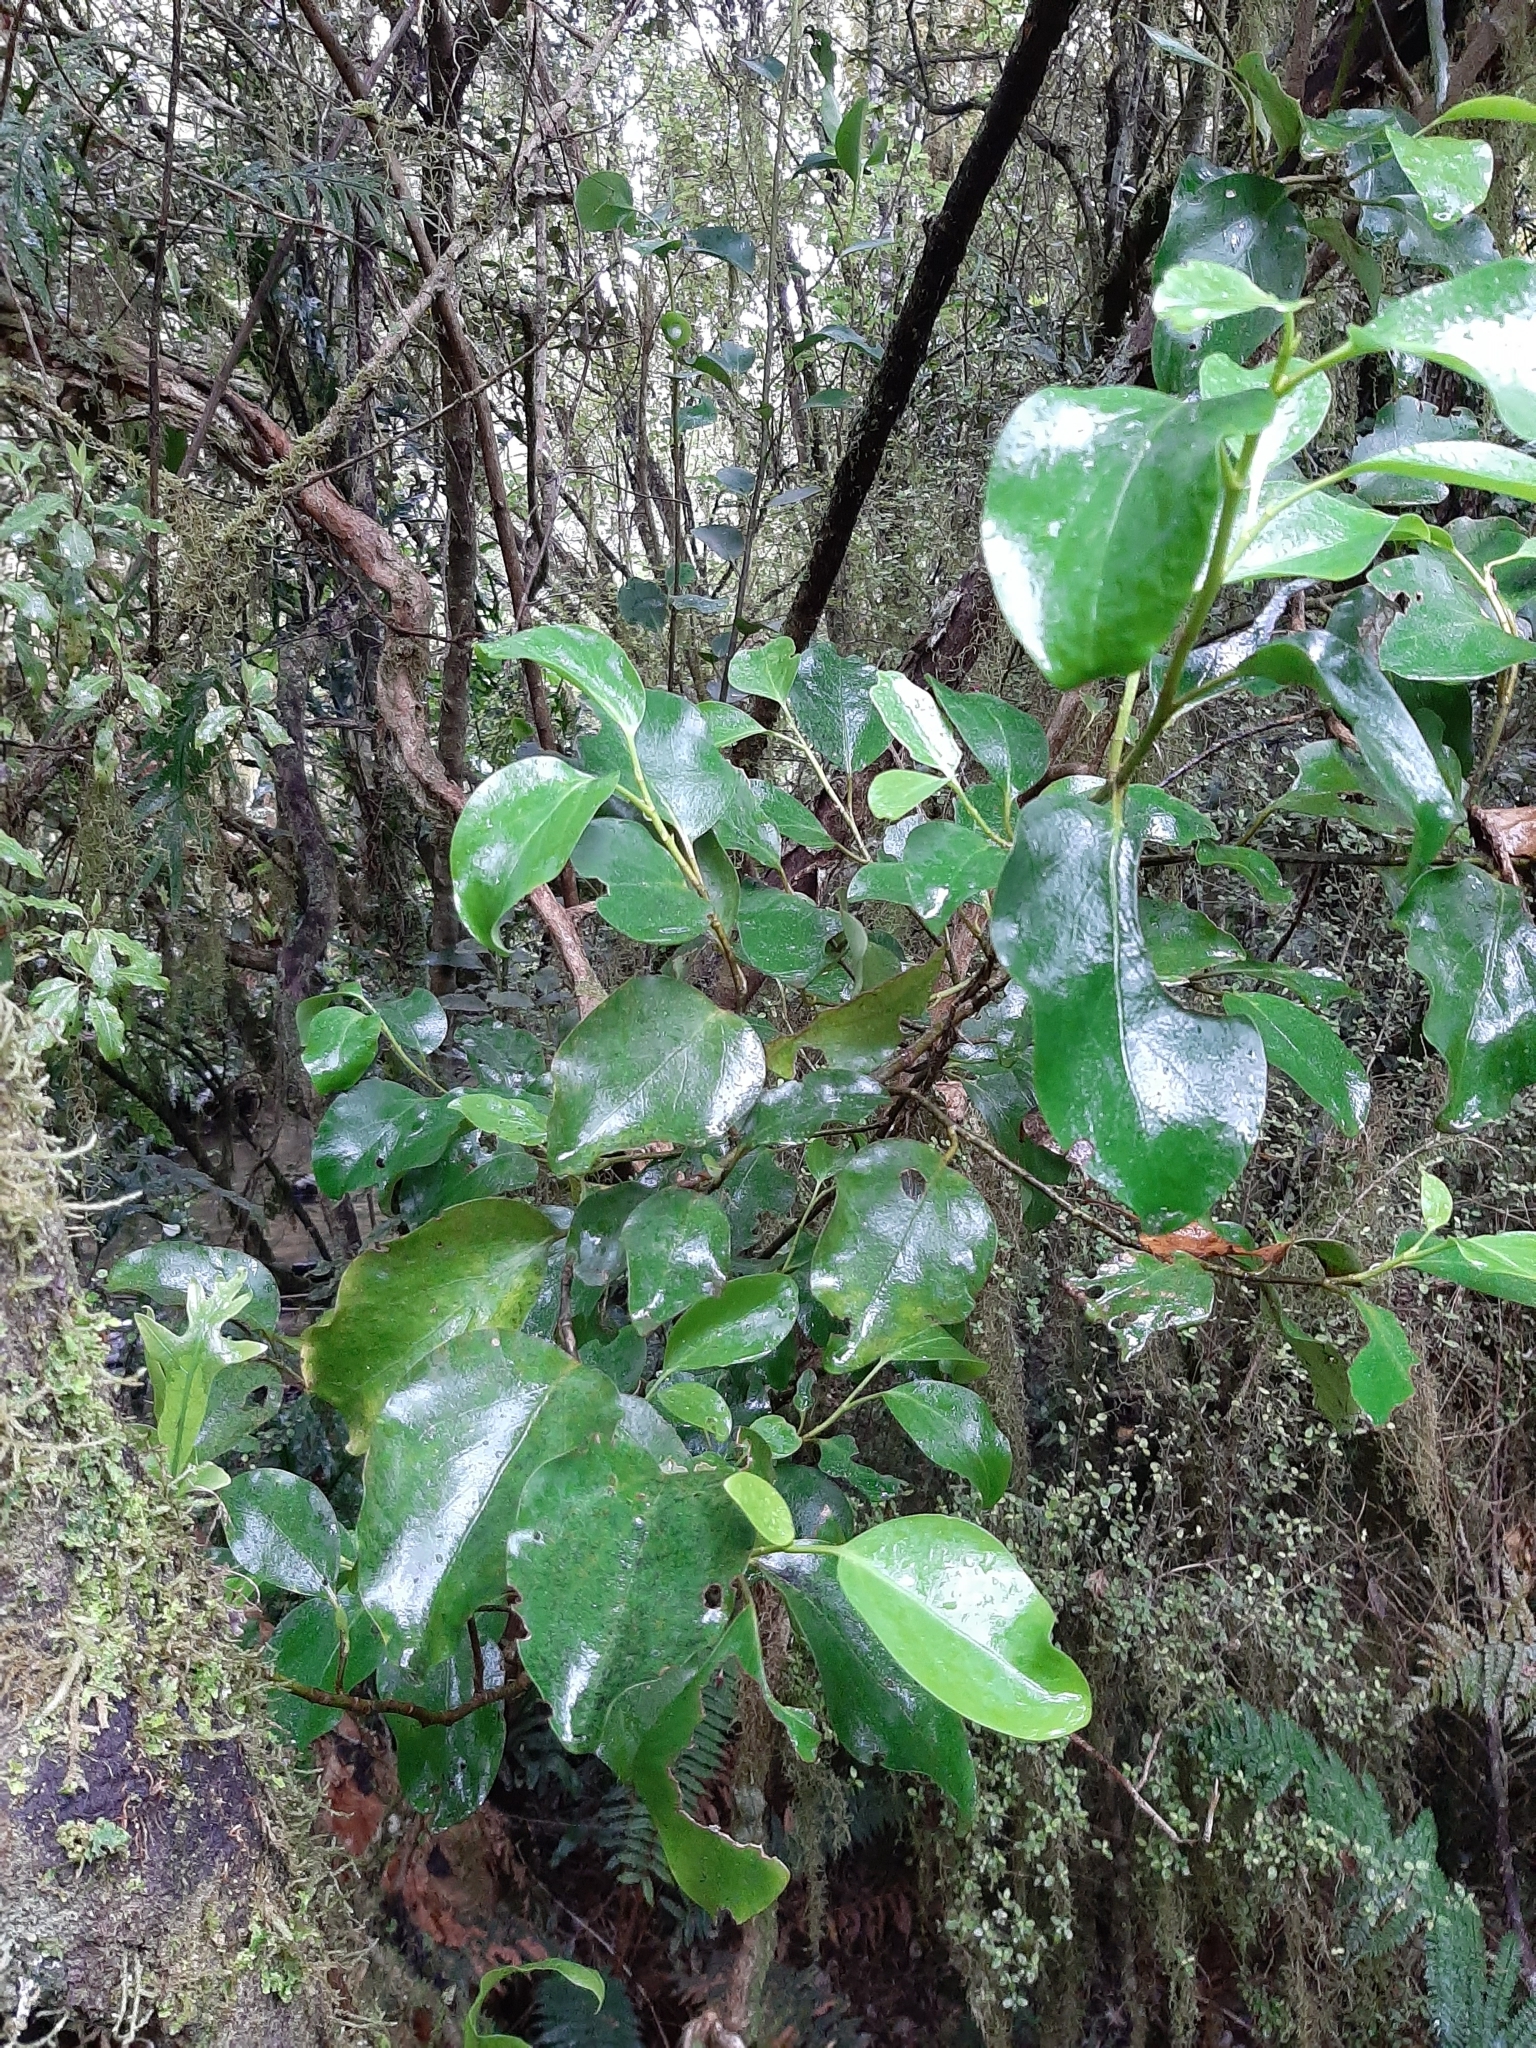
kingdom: Plantae
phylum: Tracheophyta
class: Magnoliopsida
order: Apiales
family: Griseliniaceae
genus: Griselinia
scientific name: Griselinia littoralis
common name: New zealand broadleaf
